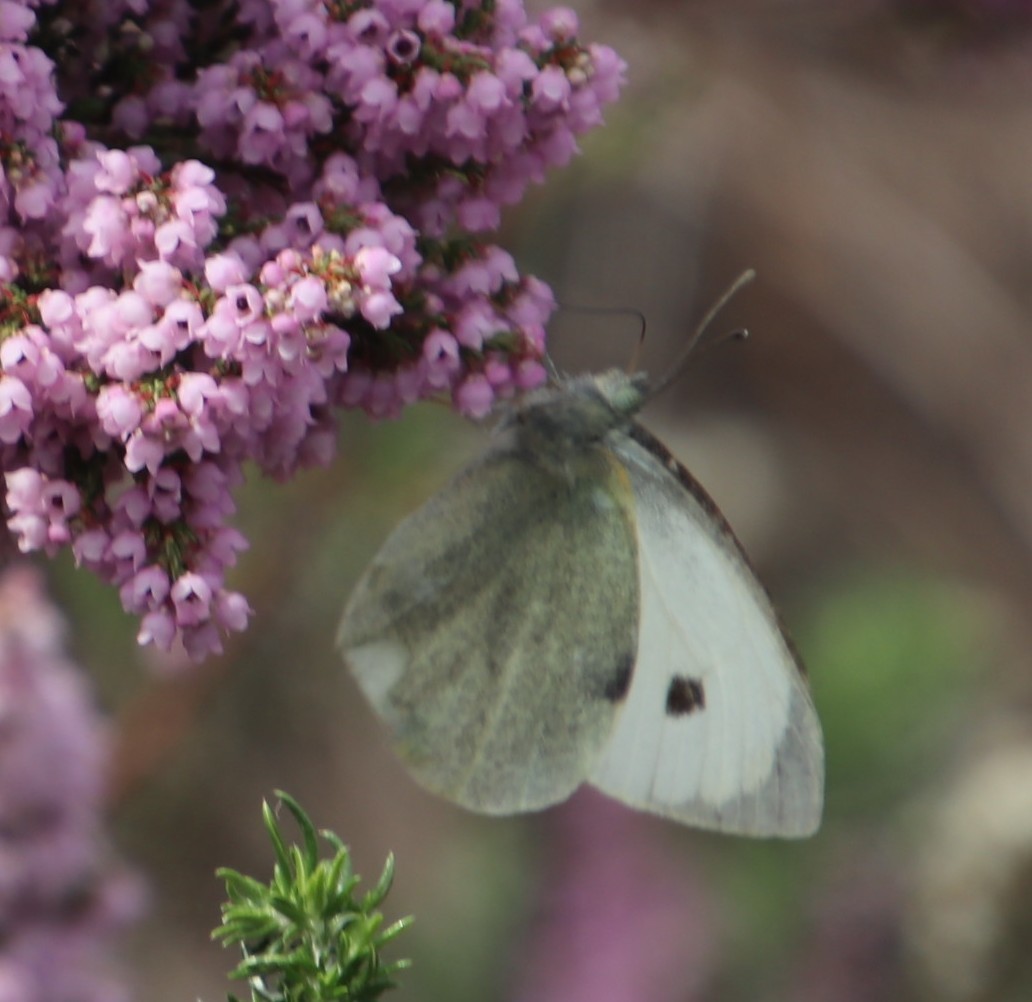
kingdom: Animalia
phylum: Arthropoda
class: Insecta
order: Lepidoptera
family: Pieridae
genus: Pieris
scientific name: Pieris brassicae
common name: Large white
